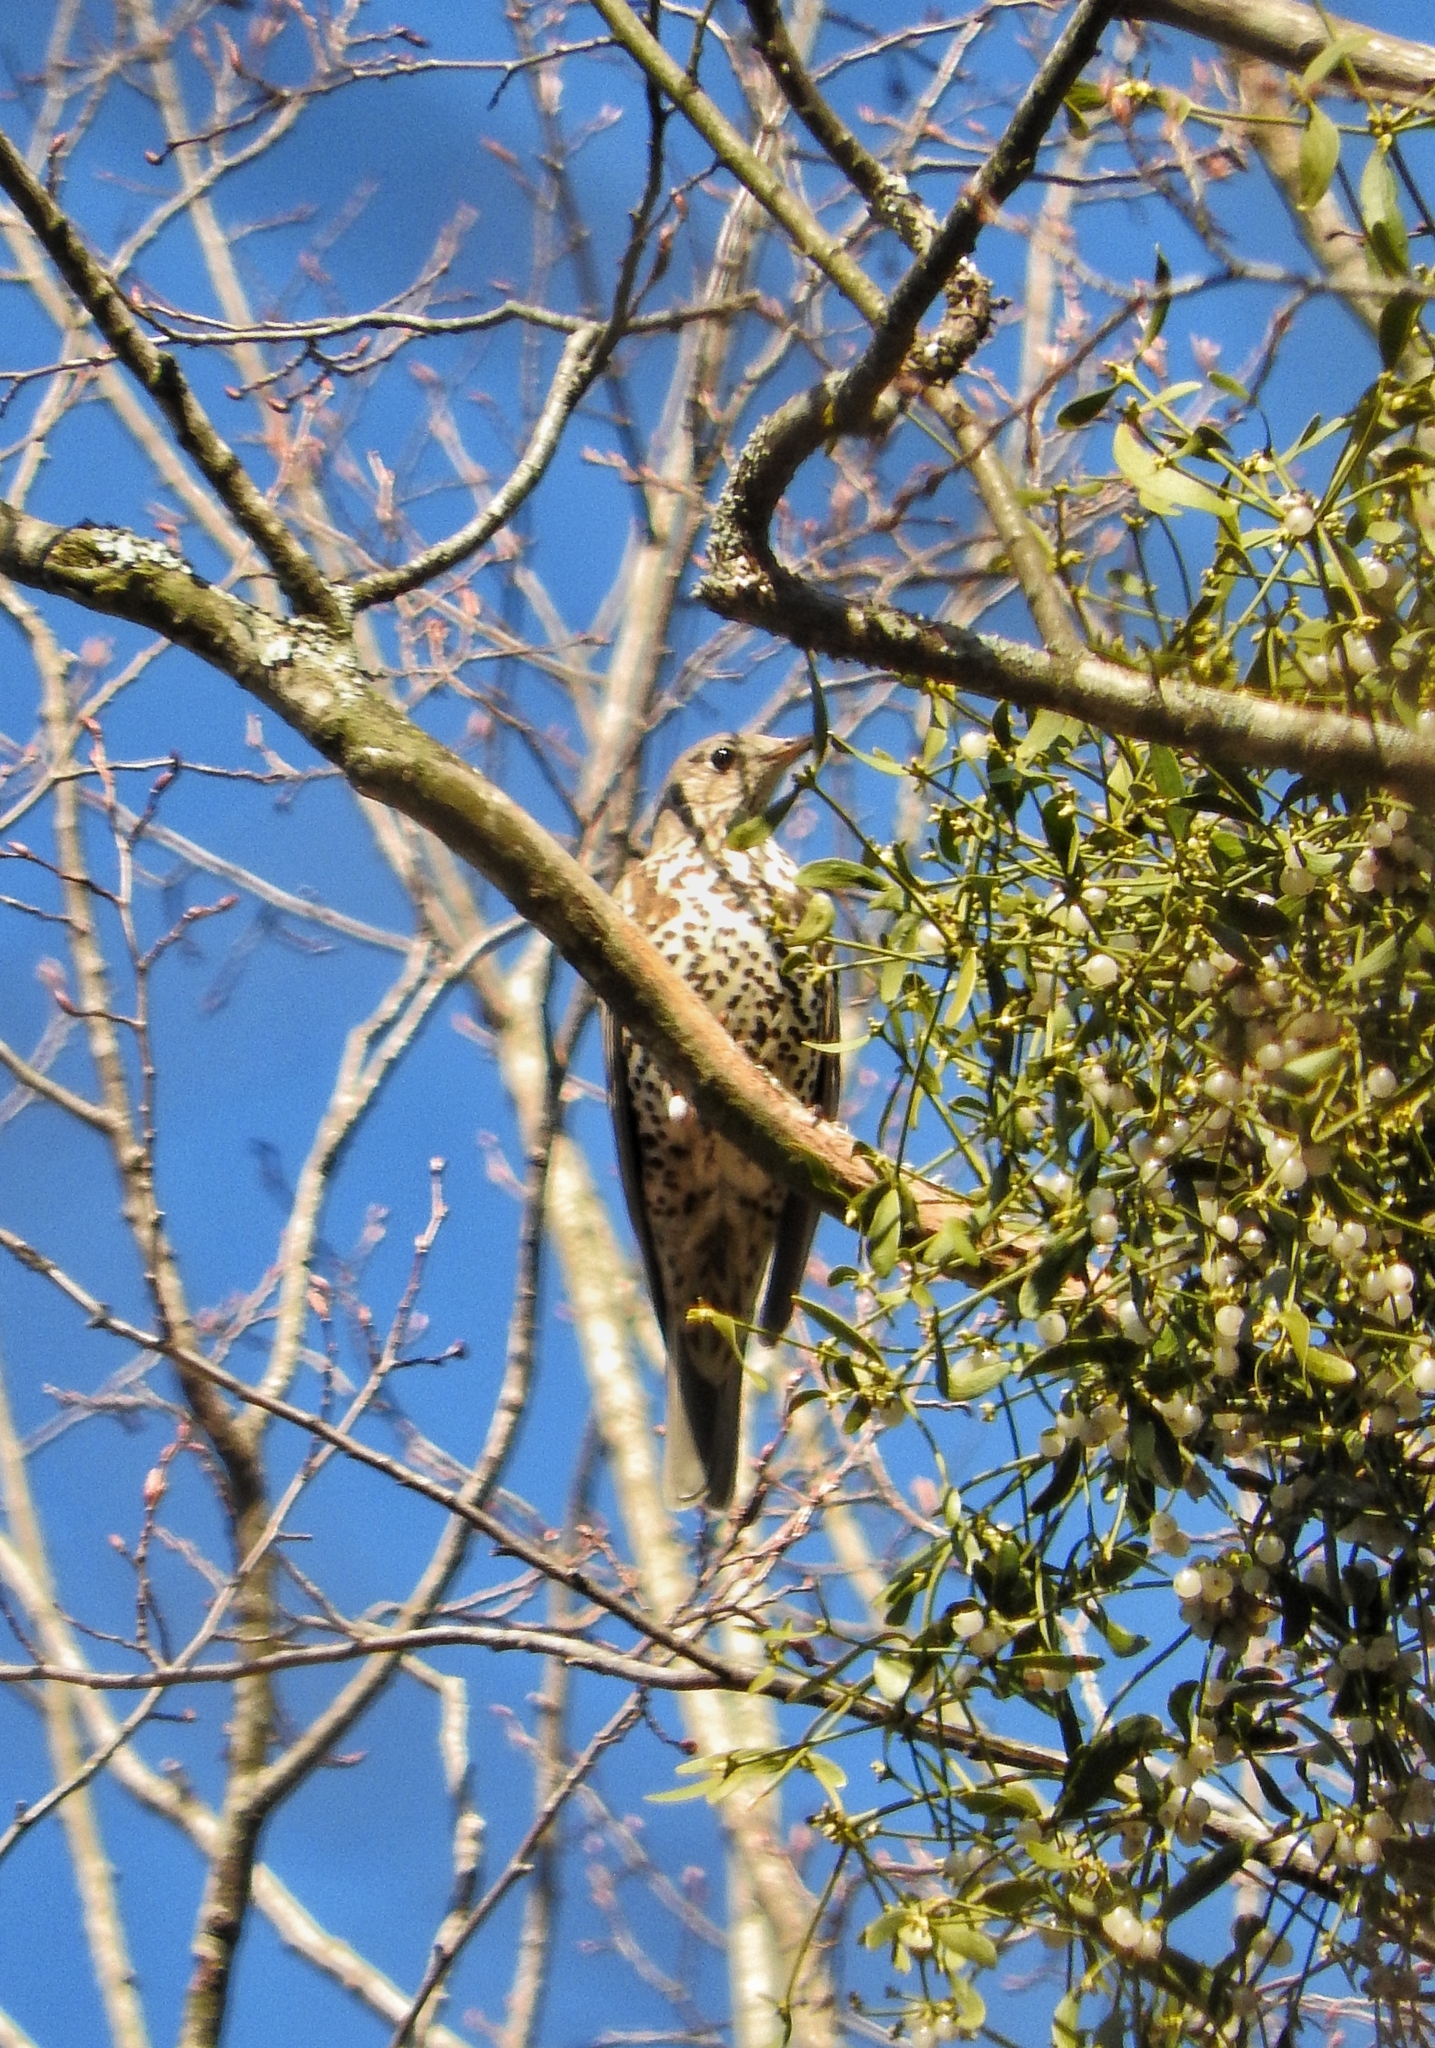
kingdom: Animalia
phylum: Chordata
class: Aves
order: Passeriformes
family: Turdidae
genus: Turdus
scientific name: Turdus viscivorus
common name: Mistle thrush
